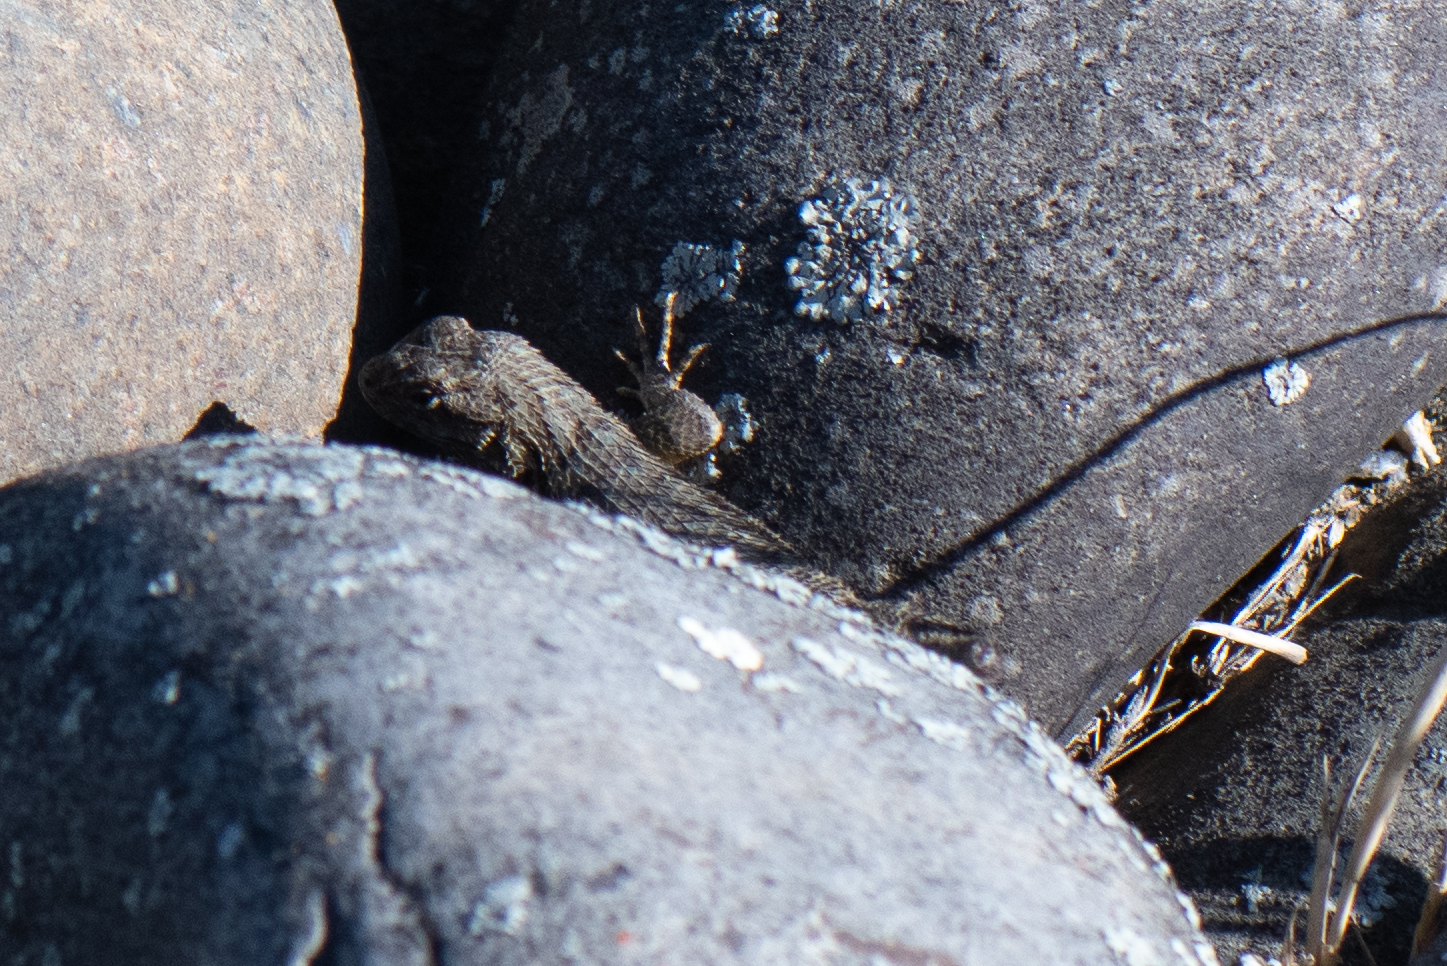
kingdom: Animalia
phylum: Chordata
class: Squamata
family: Phrynosomatidae
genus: Sceloporus
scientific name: Sceloporus occidentalis
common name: Western fence lizard
